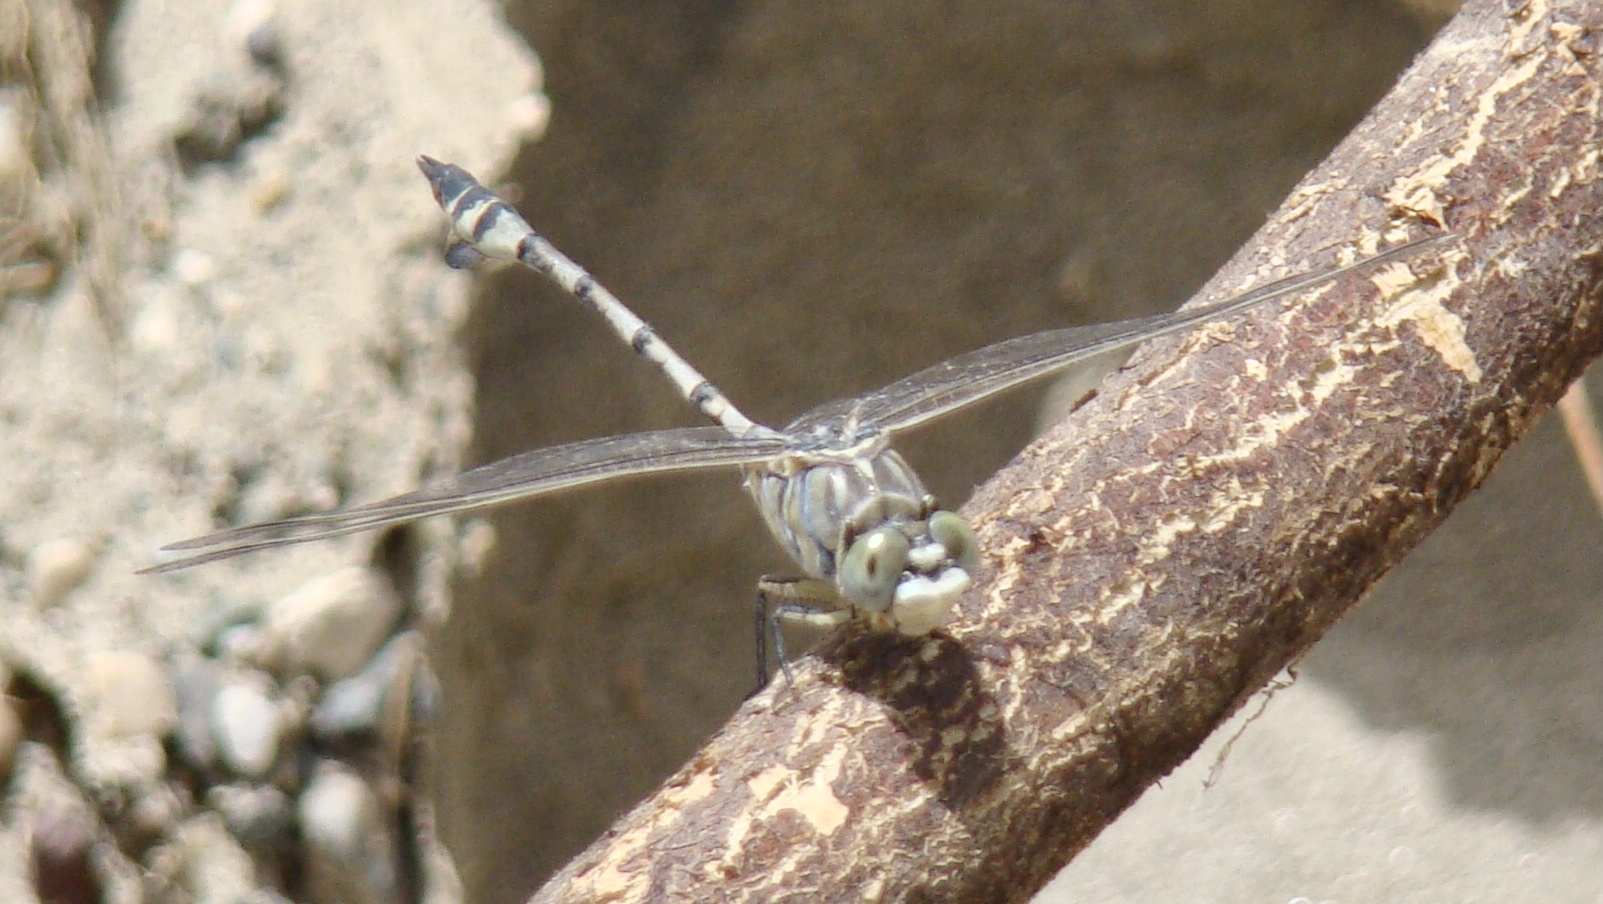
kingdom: Animalia
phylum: Arthropoda
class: Insecta
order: Odonata
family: Gomphidae
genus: Lindenia
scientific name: Lindenia tetraphylla
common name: Bladetail
